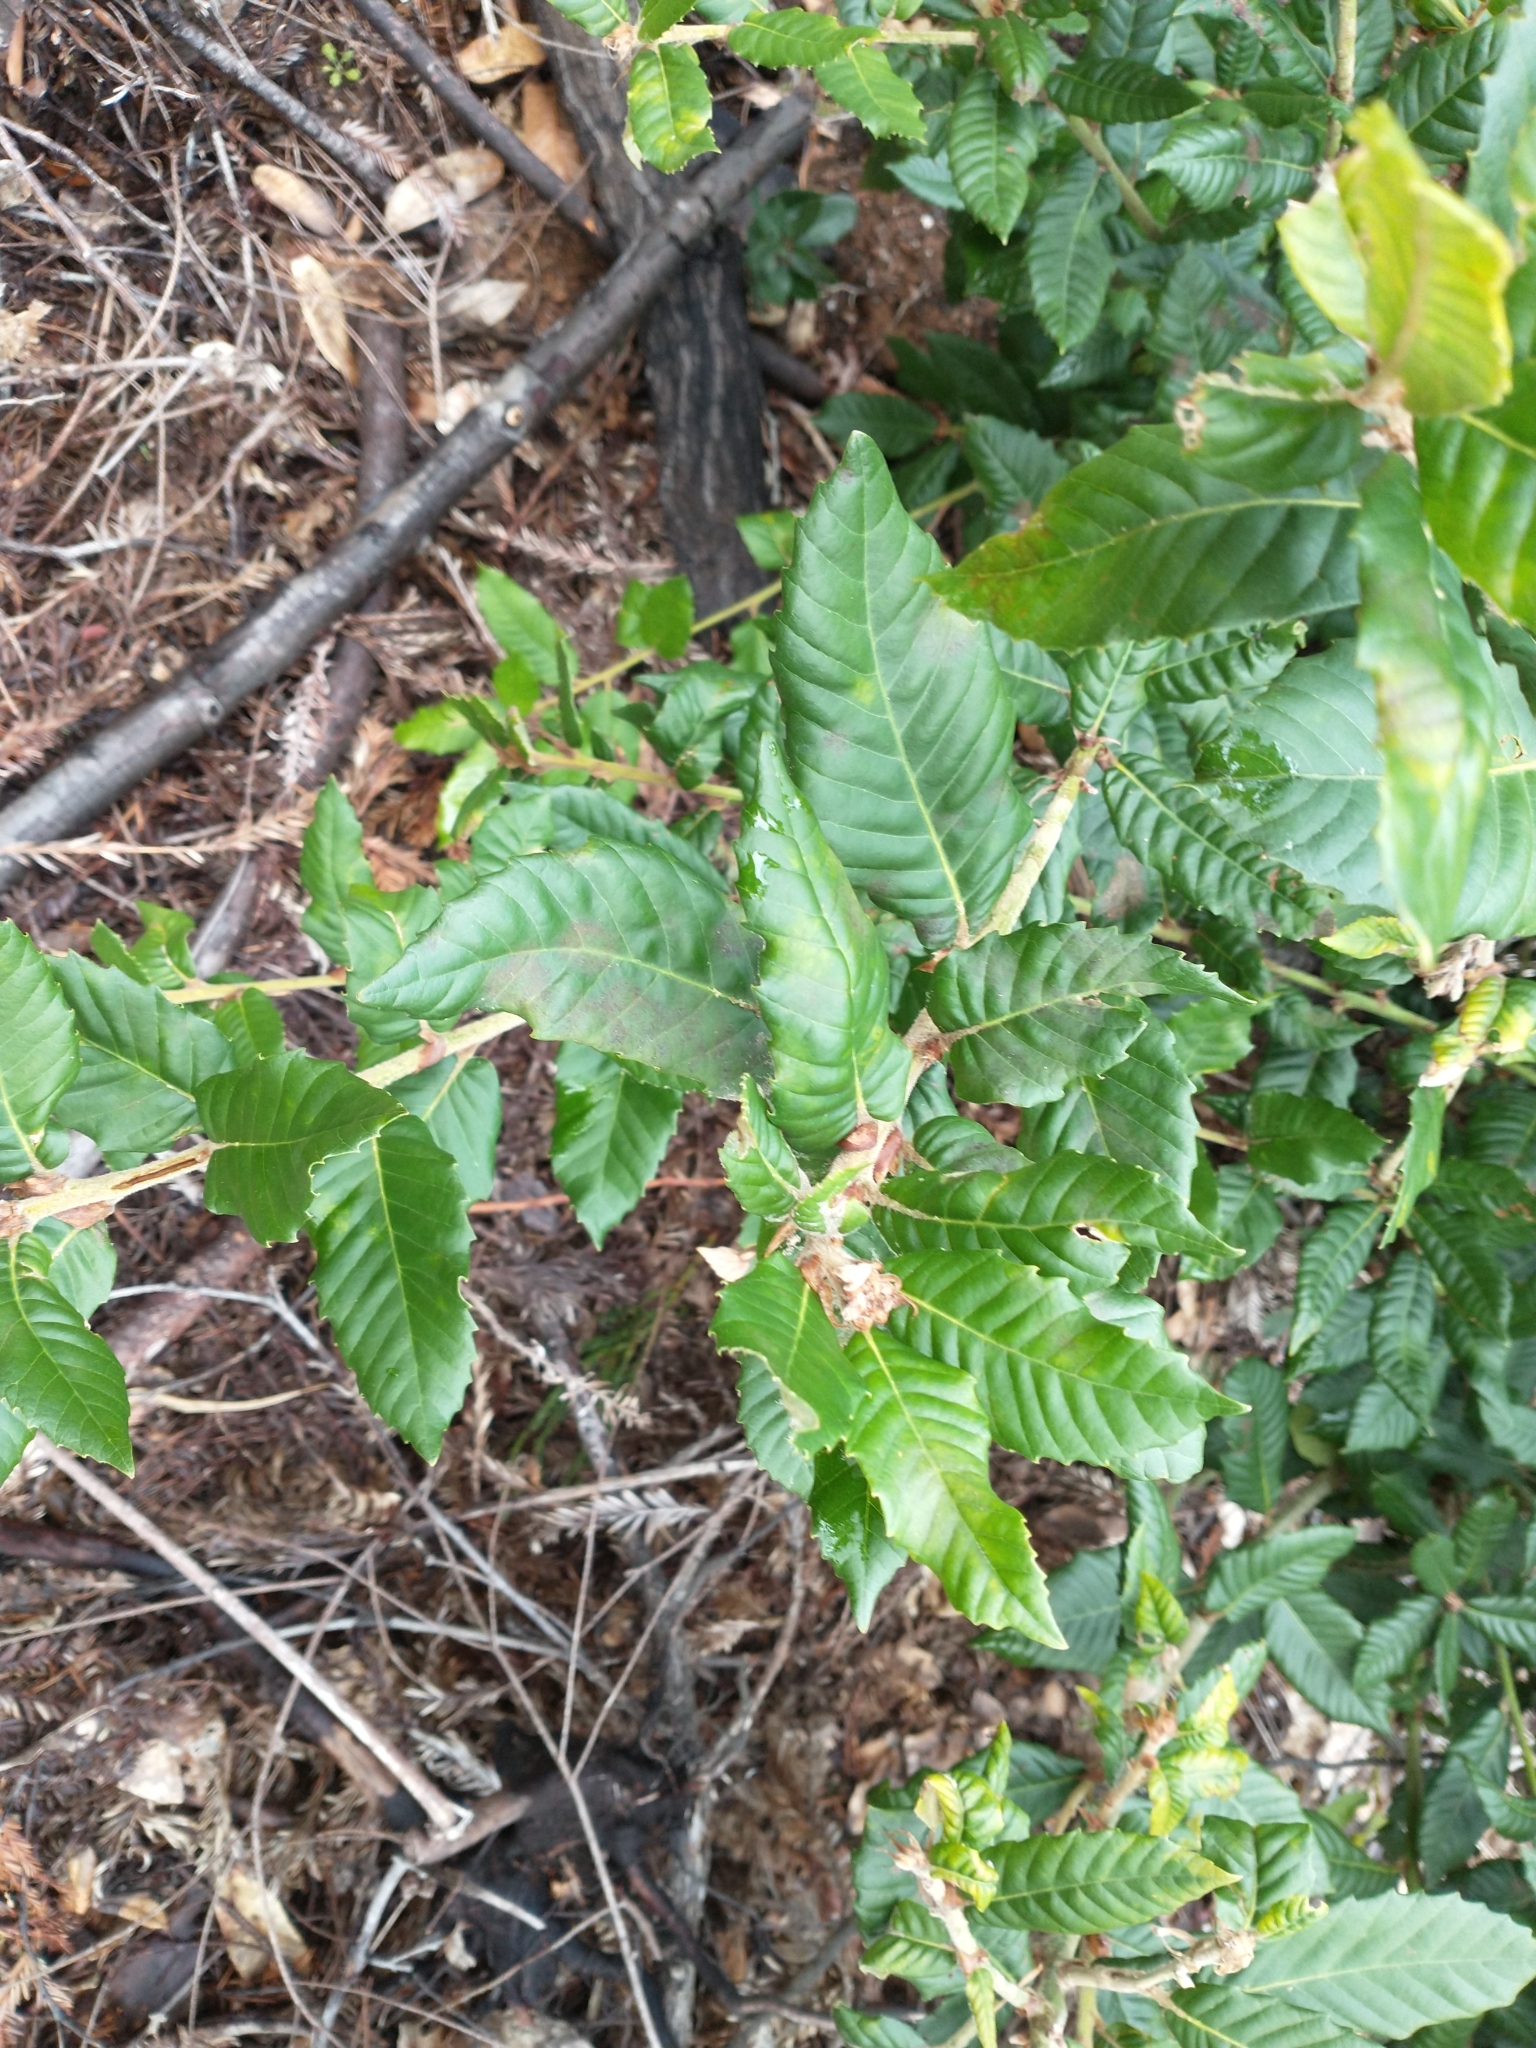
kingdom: Plantae
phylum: Tracheophyta
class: Magnoliopsida
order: Fagales
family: Fagaceae
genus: Notholithocarpus
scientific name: Notholithocarpus densiflorus
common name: Tan bark oak
